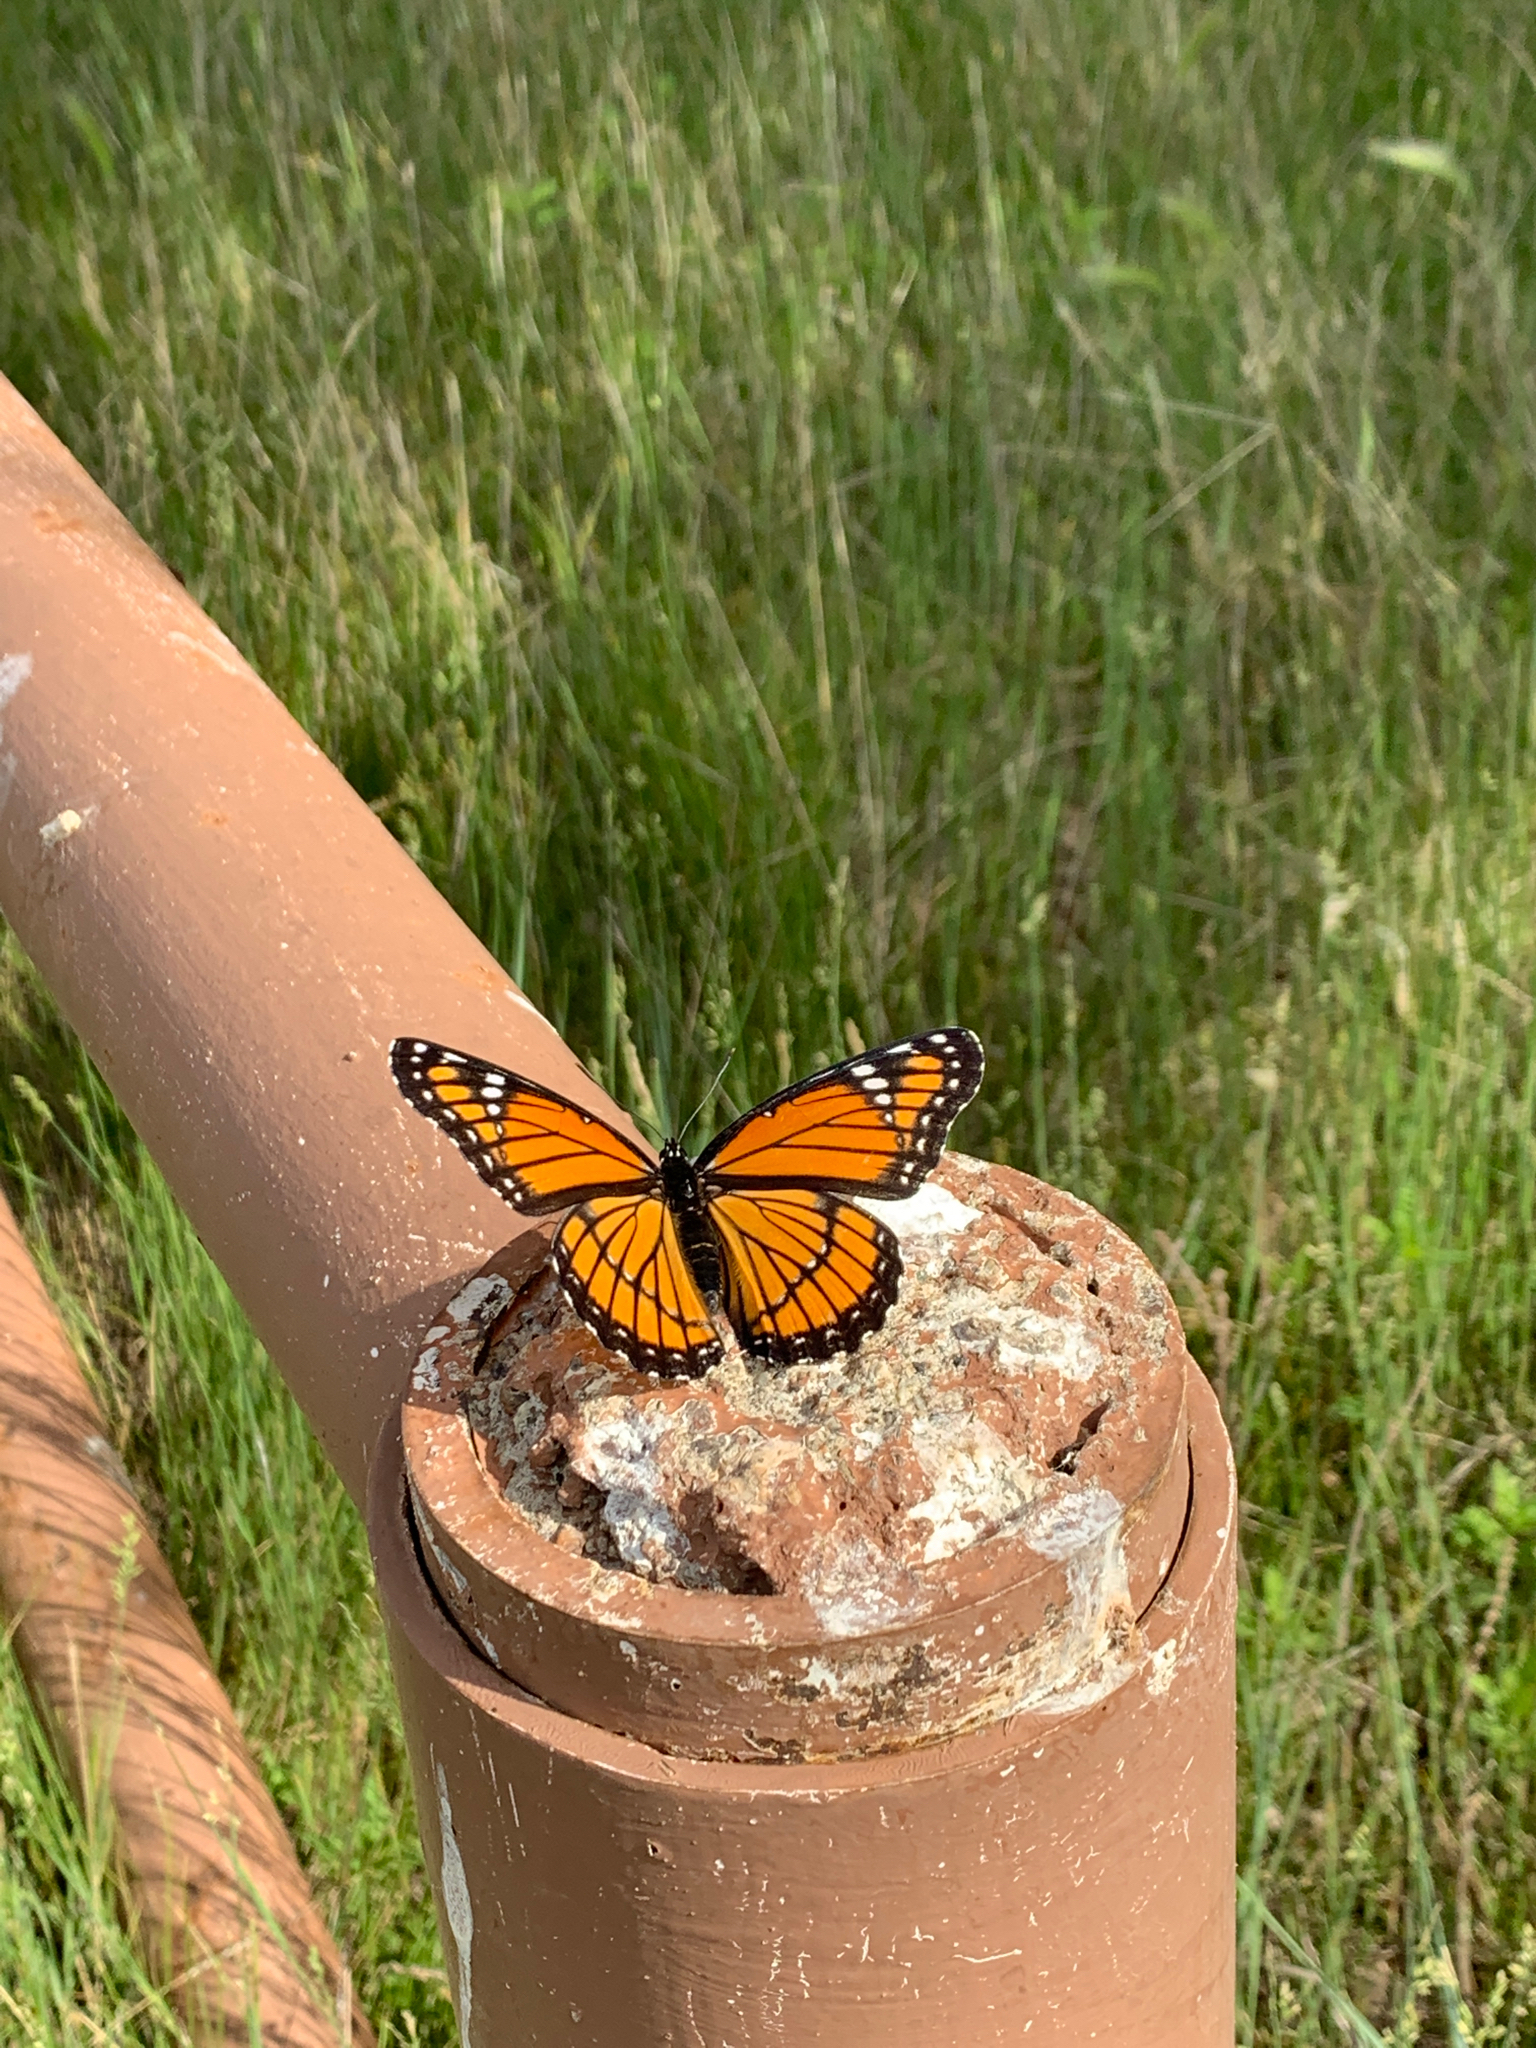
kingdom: Animalia
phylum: Arthropoda
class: Insecta
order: Lepidoptera
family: Nymphalidae
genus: Limenitis
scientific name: Limenitis archippus
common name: Viceroy
